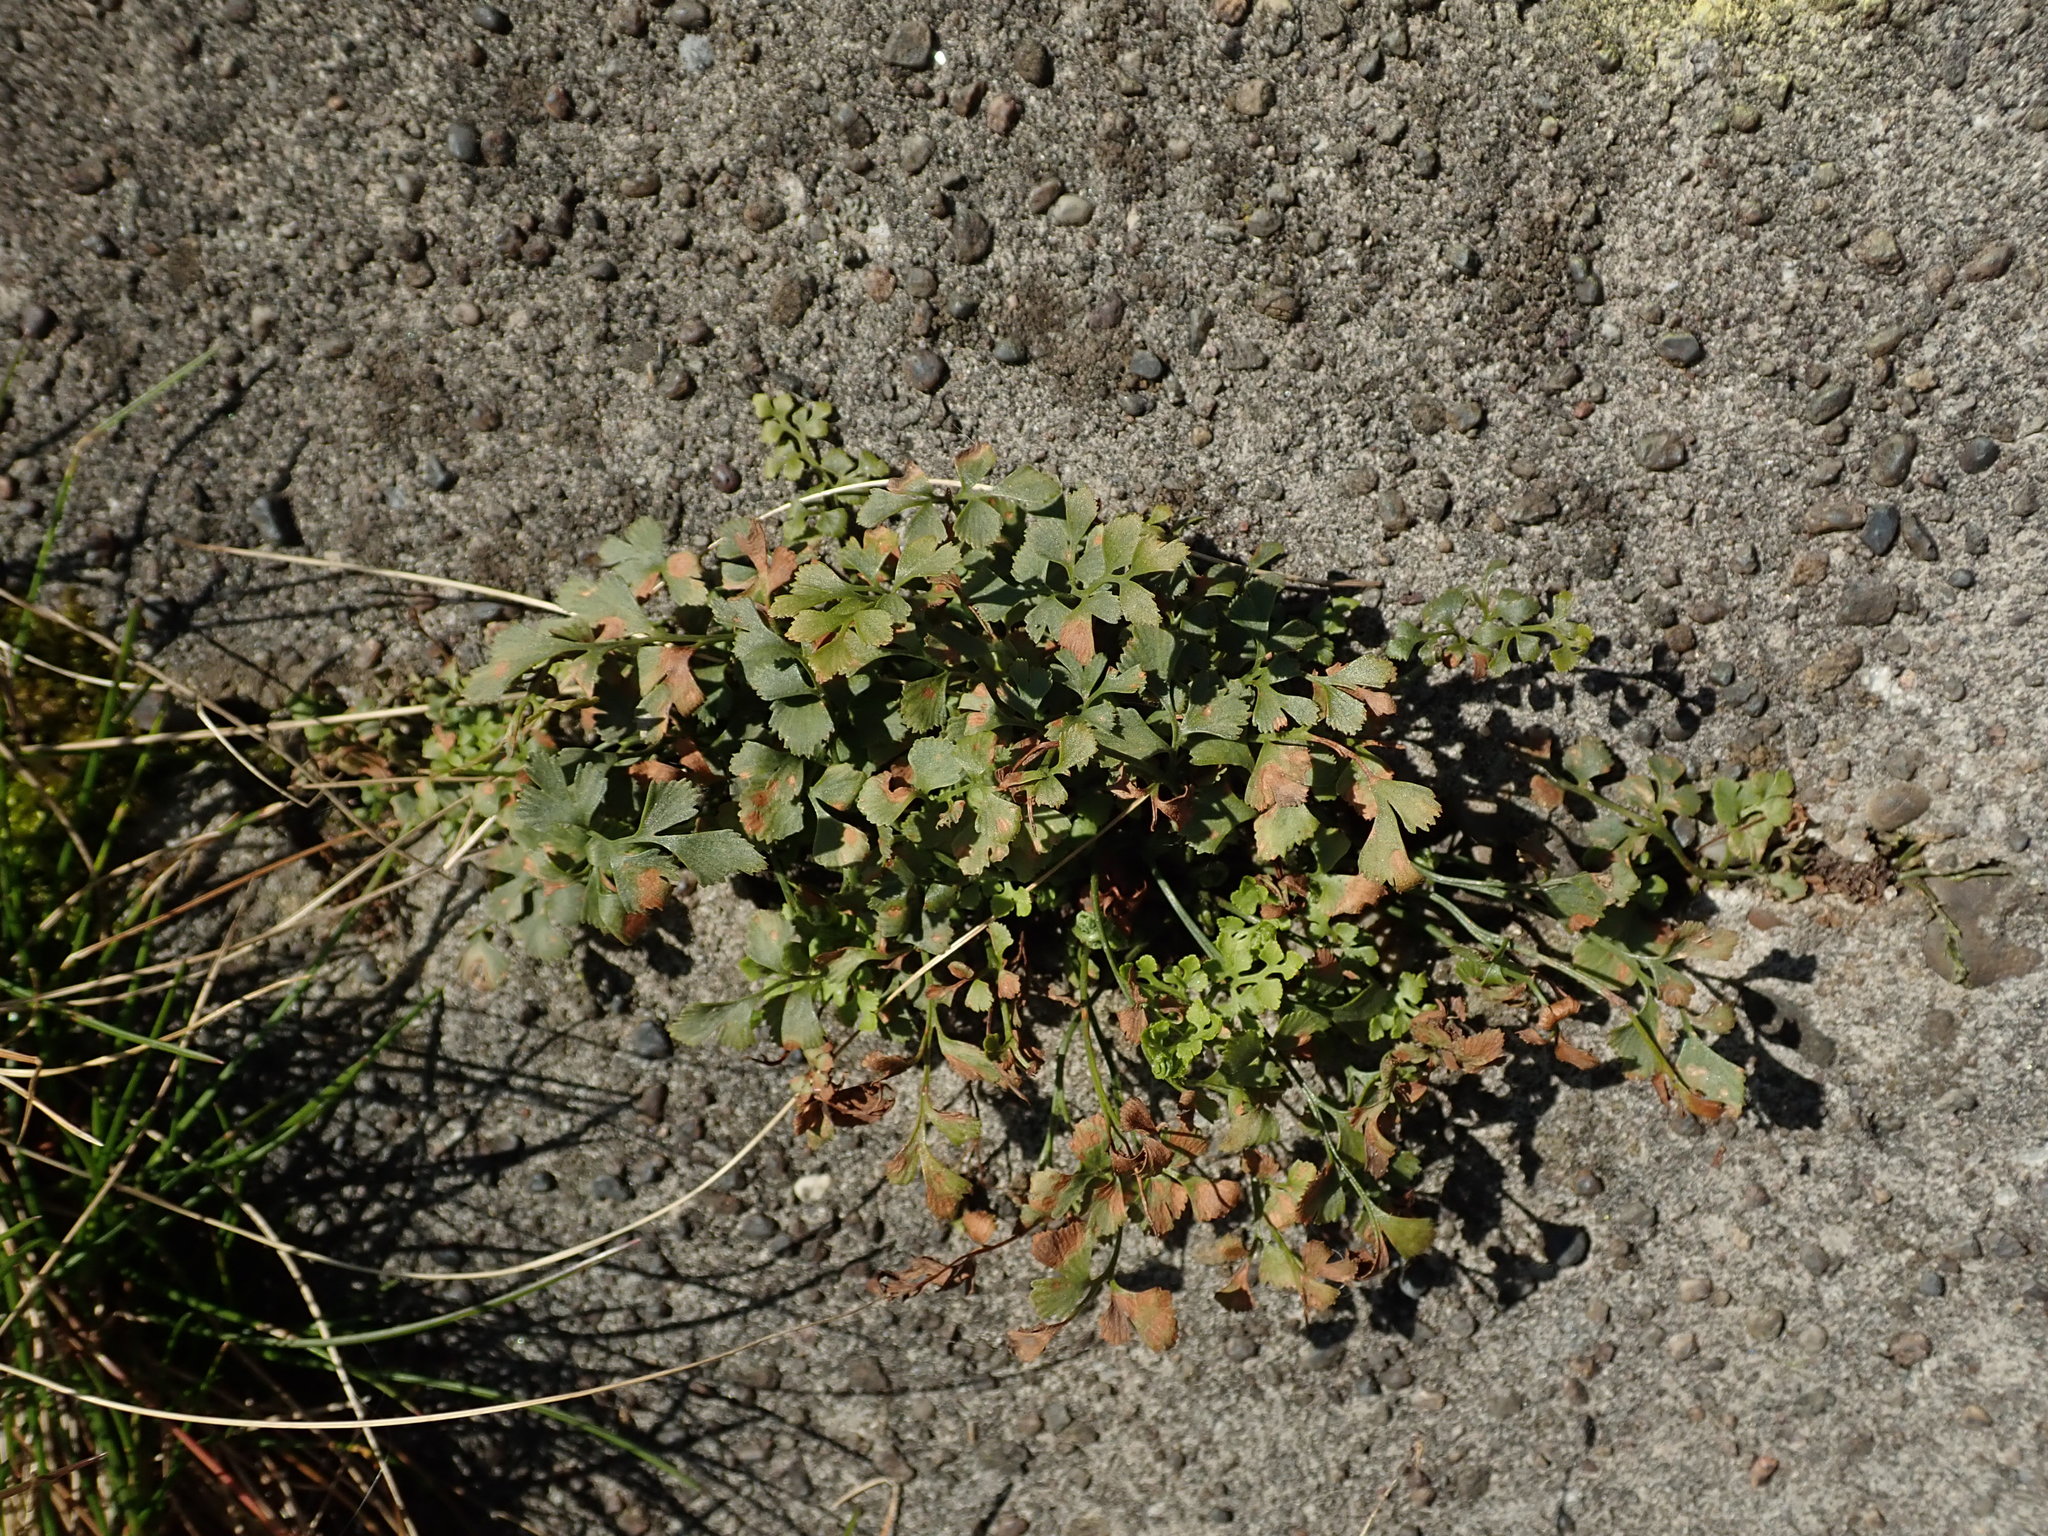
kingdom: Plantae
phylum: Tracheophyta
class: Polypodiopsida
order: Polypodiales
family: Aspleniaceae
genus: Asplenium
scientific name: Asplenium ruta-muraria
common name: Wall-rue
